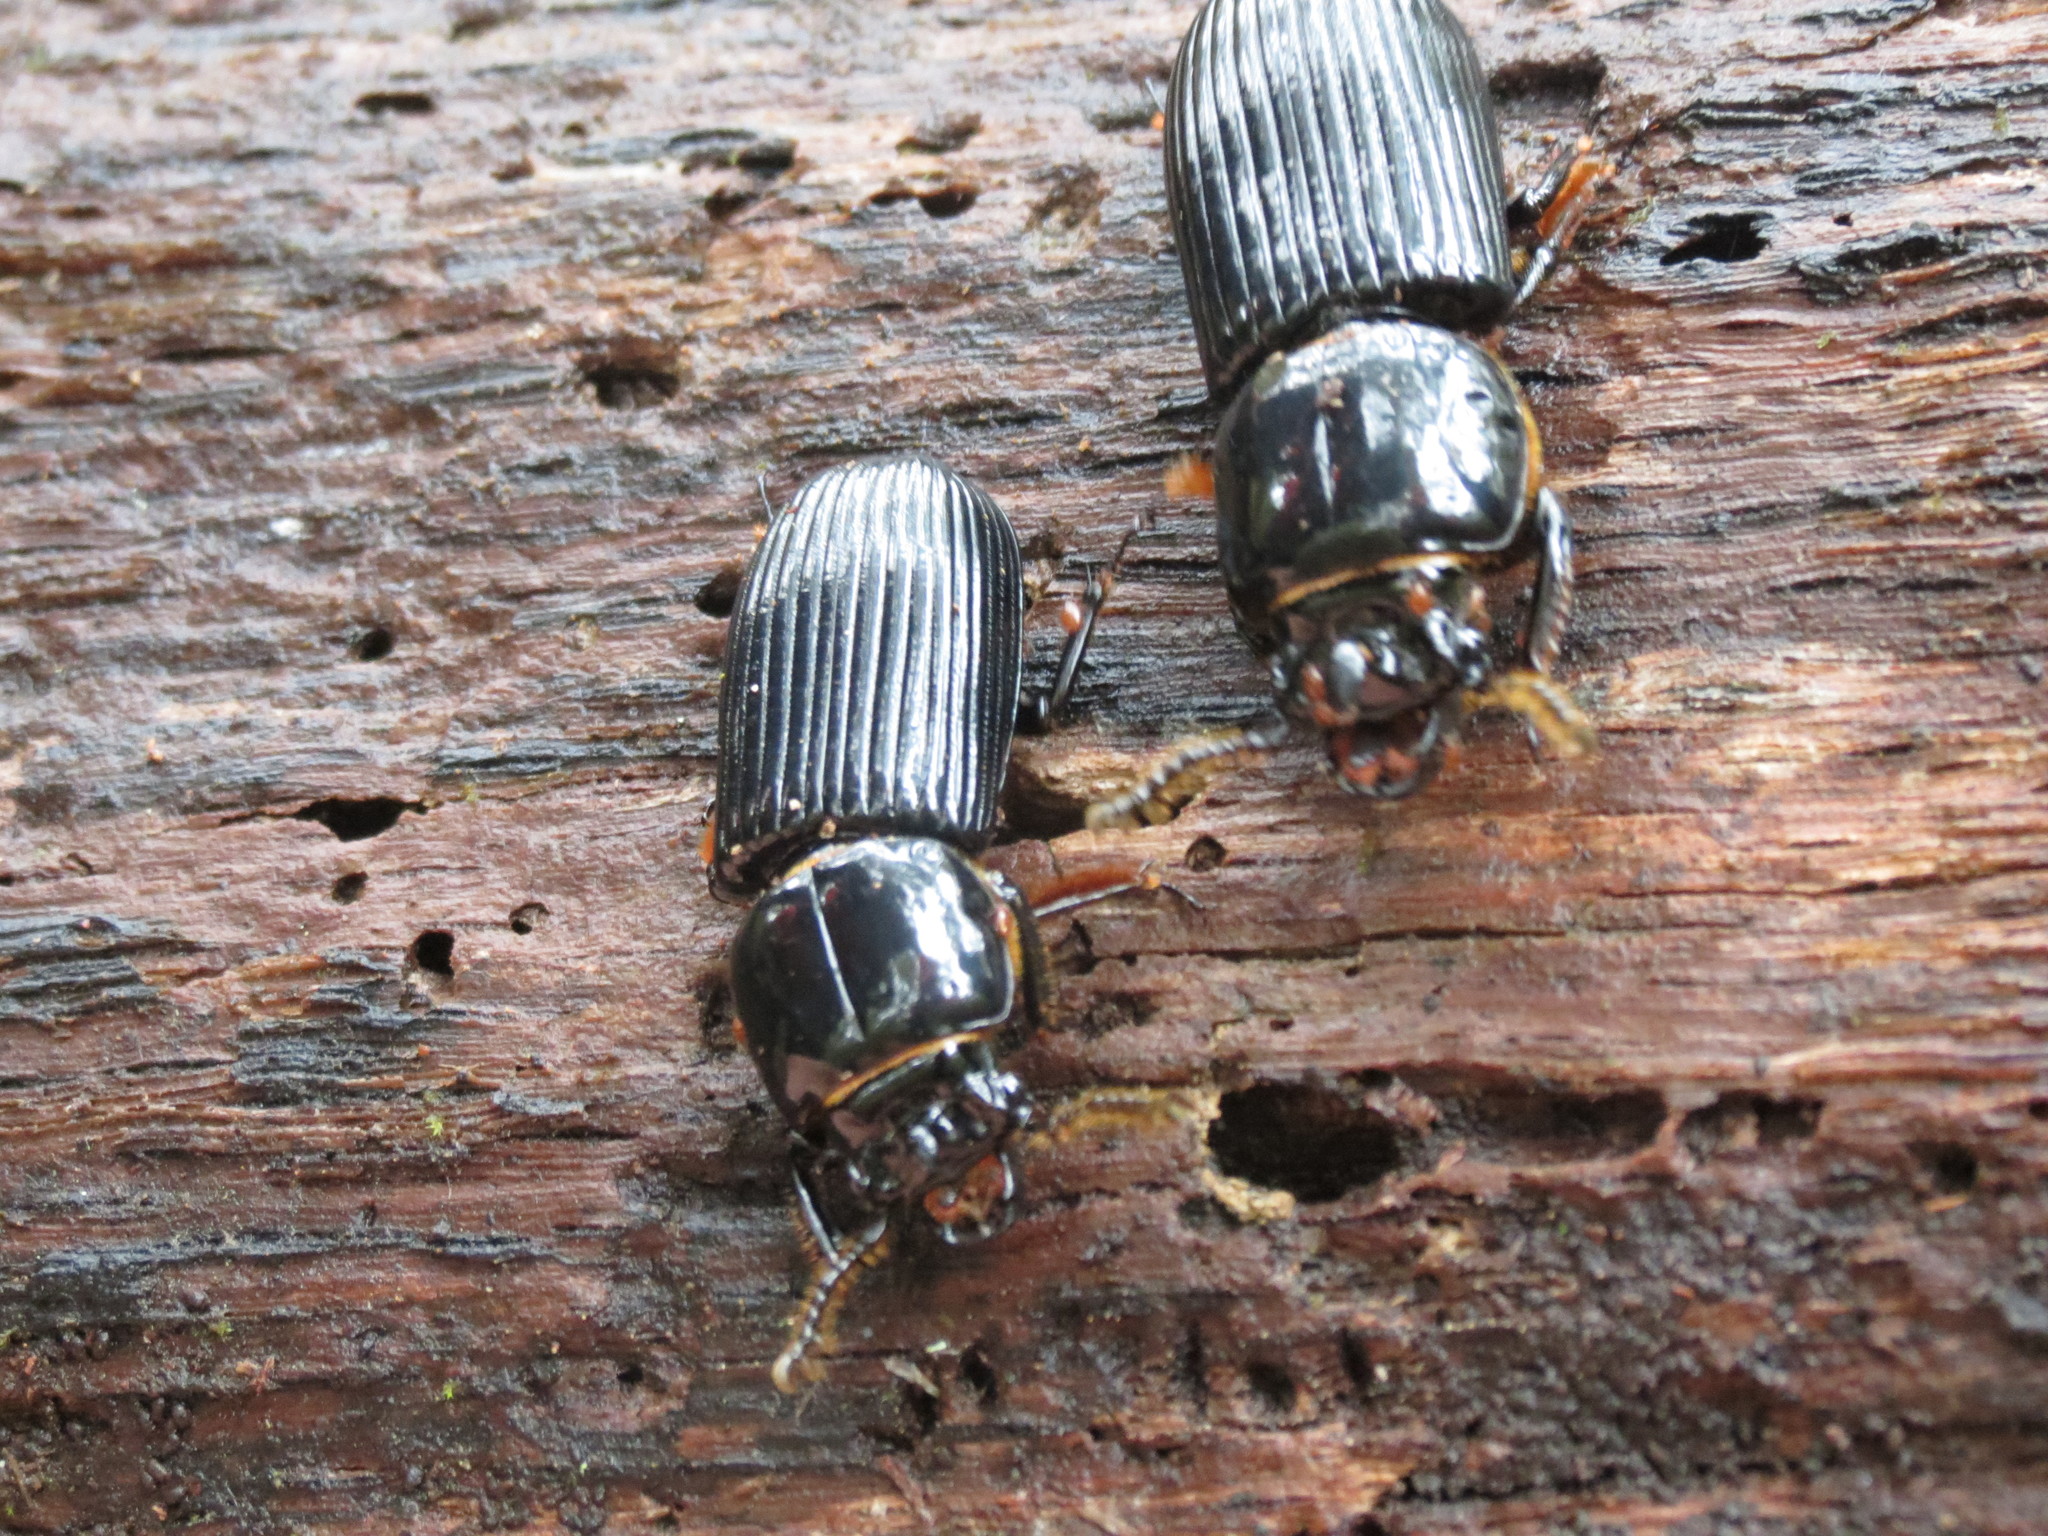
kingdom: Animalia
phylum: Arthropoda
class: Insecta
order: Coleoptera
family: Passalidae
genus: Odontotaenius
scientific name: Odontotaenius disjunctus
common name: Patent leather beetle
